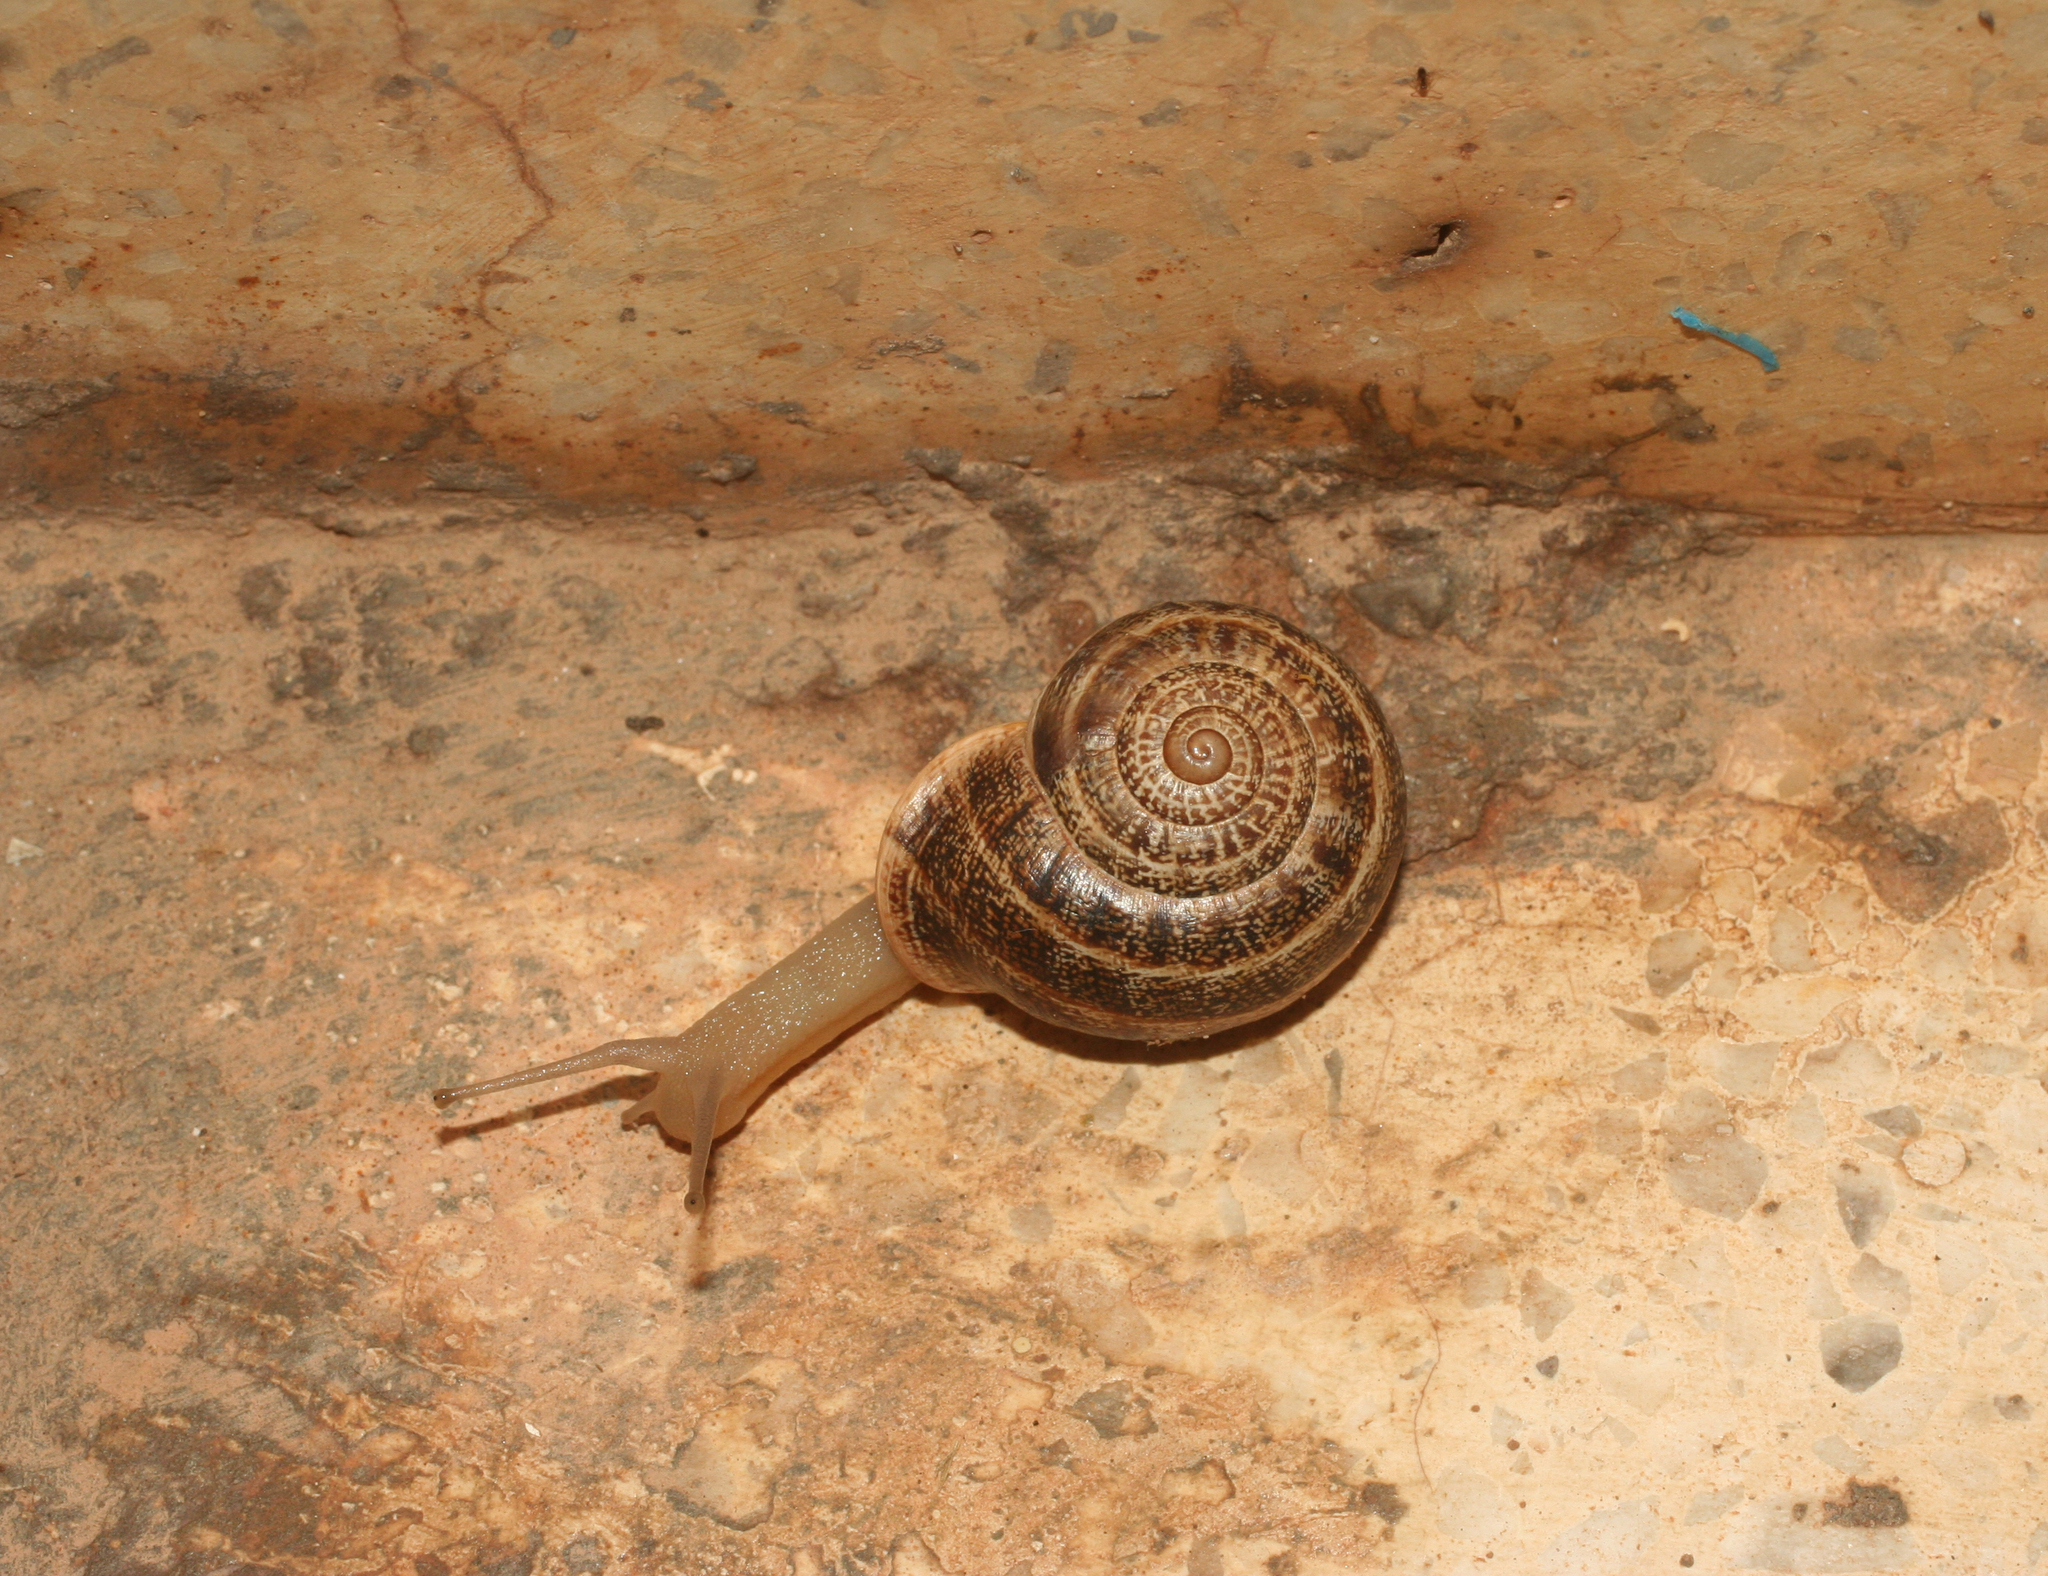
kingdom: Animalia
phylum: Mollusca
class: Gastropoda
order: Stylommatophora
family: Helicidae
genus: Otala
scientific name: Otala lactea
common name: Milk snail
